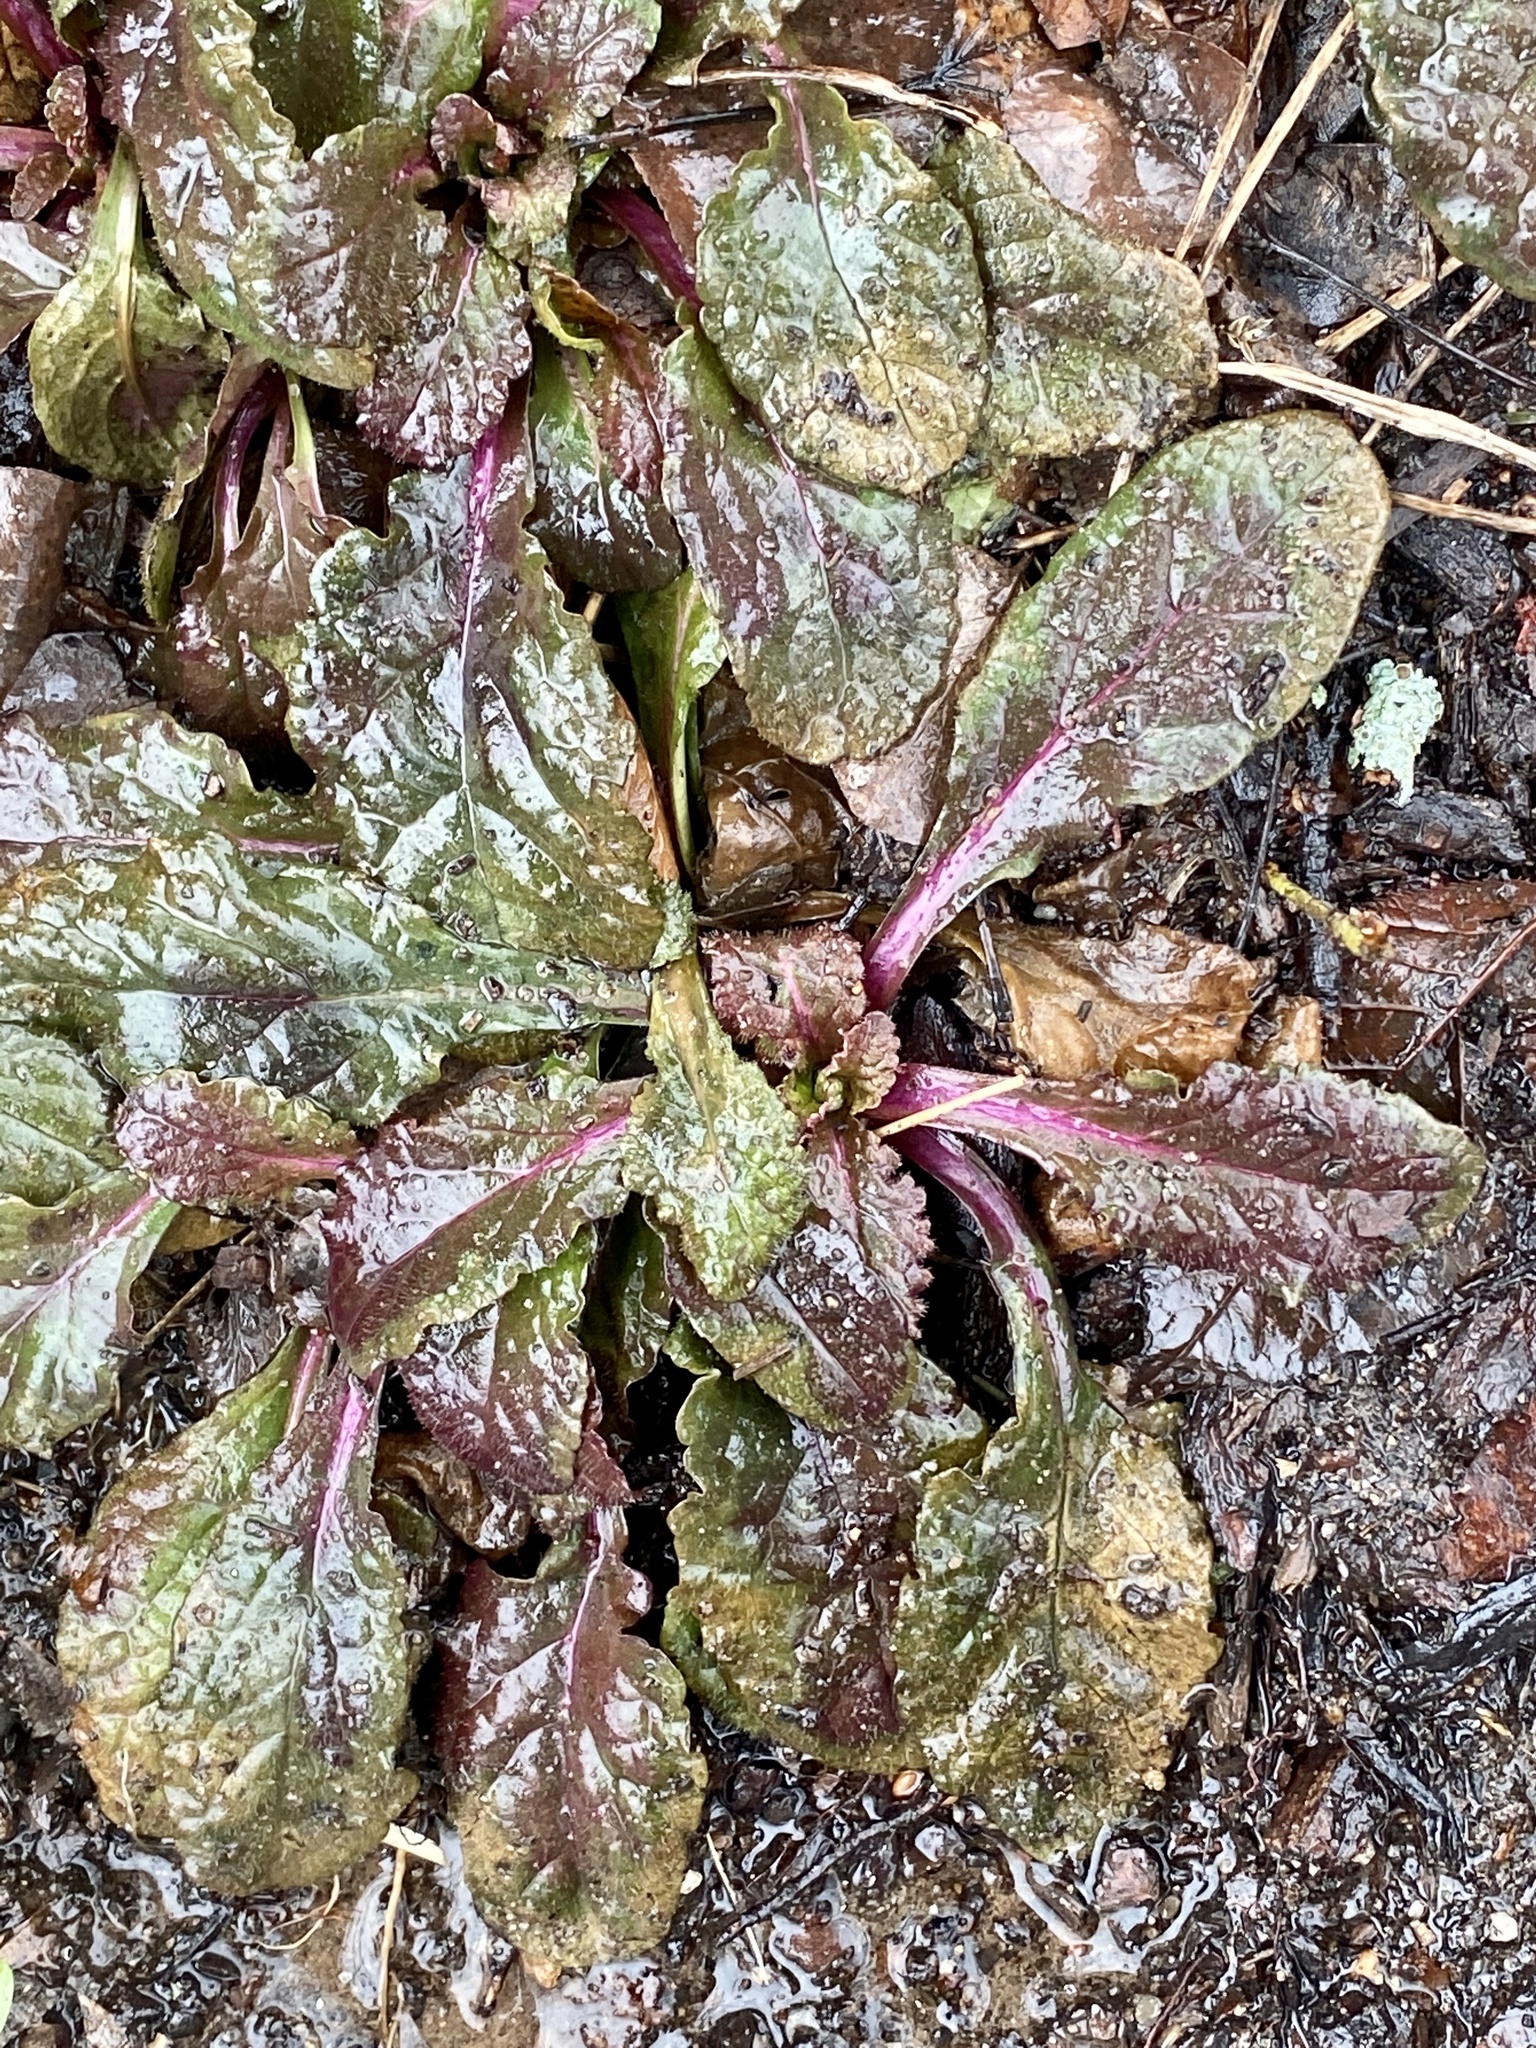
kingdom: Plantae
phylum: Tracheophyta
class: Magnoliopsida
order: Lamiales
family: Lamiaceae
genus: Ajuga
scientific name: Ajuga reptans
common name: Bugle
